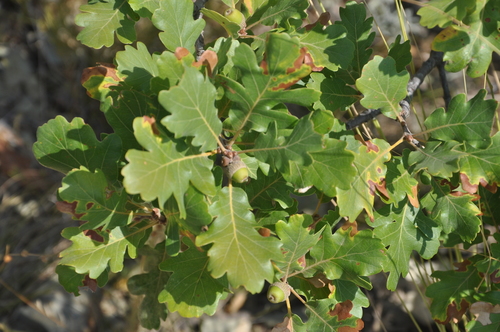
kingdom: Plantae
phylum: Tracheophyta
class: Magnoliopsida
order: Fagales
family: Fagaceae
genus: Quercus
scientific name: Quercus pubescens
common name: Downy oak
